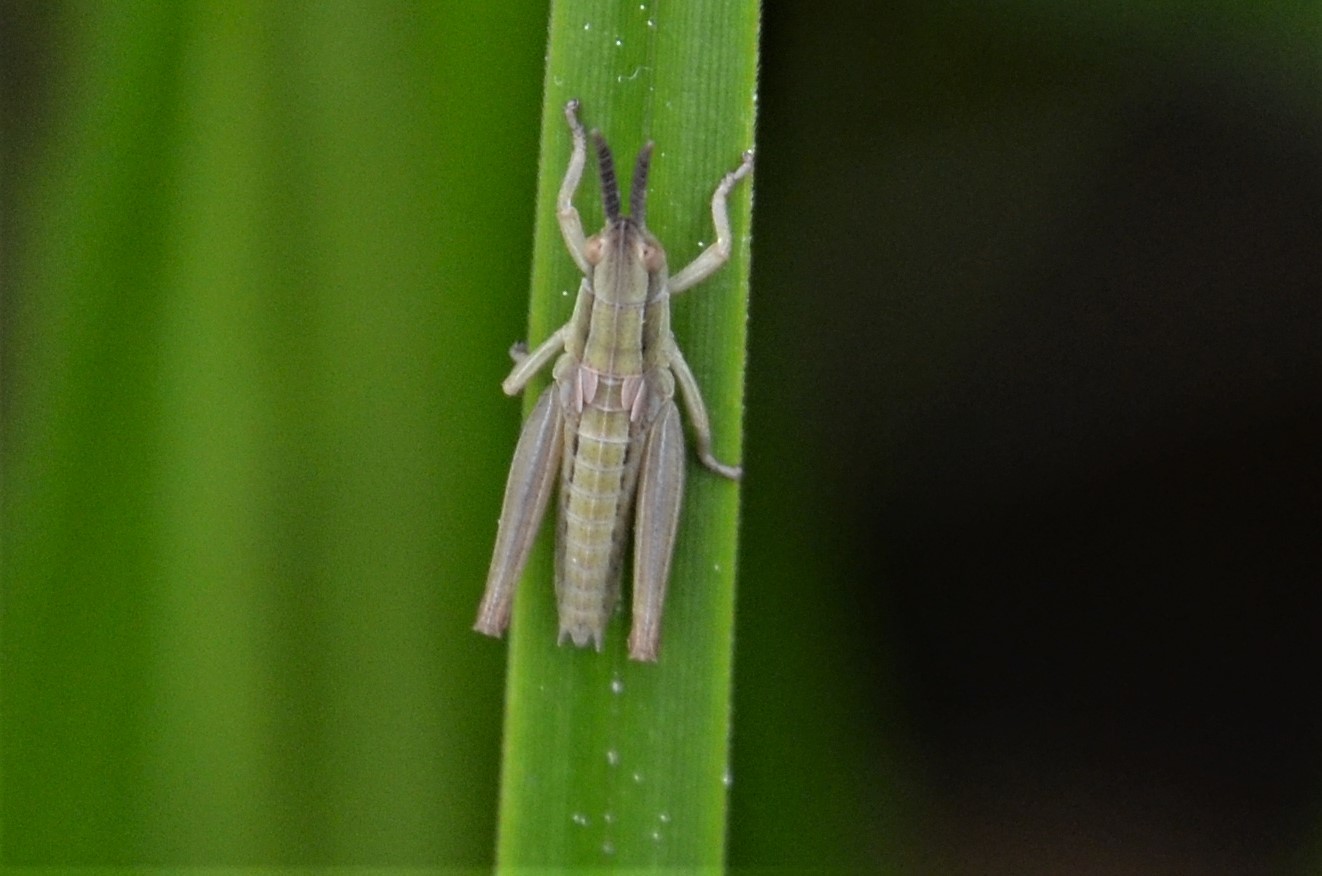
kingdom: Animalia
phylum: Arthropoda
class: Insecta
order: Orthoptera
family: Acrididae
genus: Euthystira
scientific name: Euthystira brachyptera
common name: Small gold grasshopper
